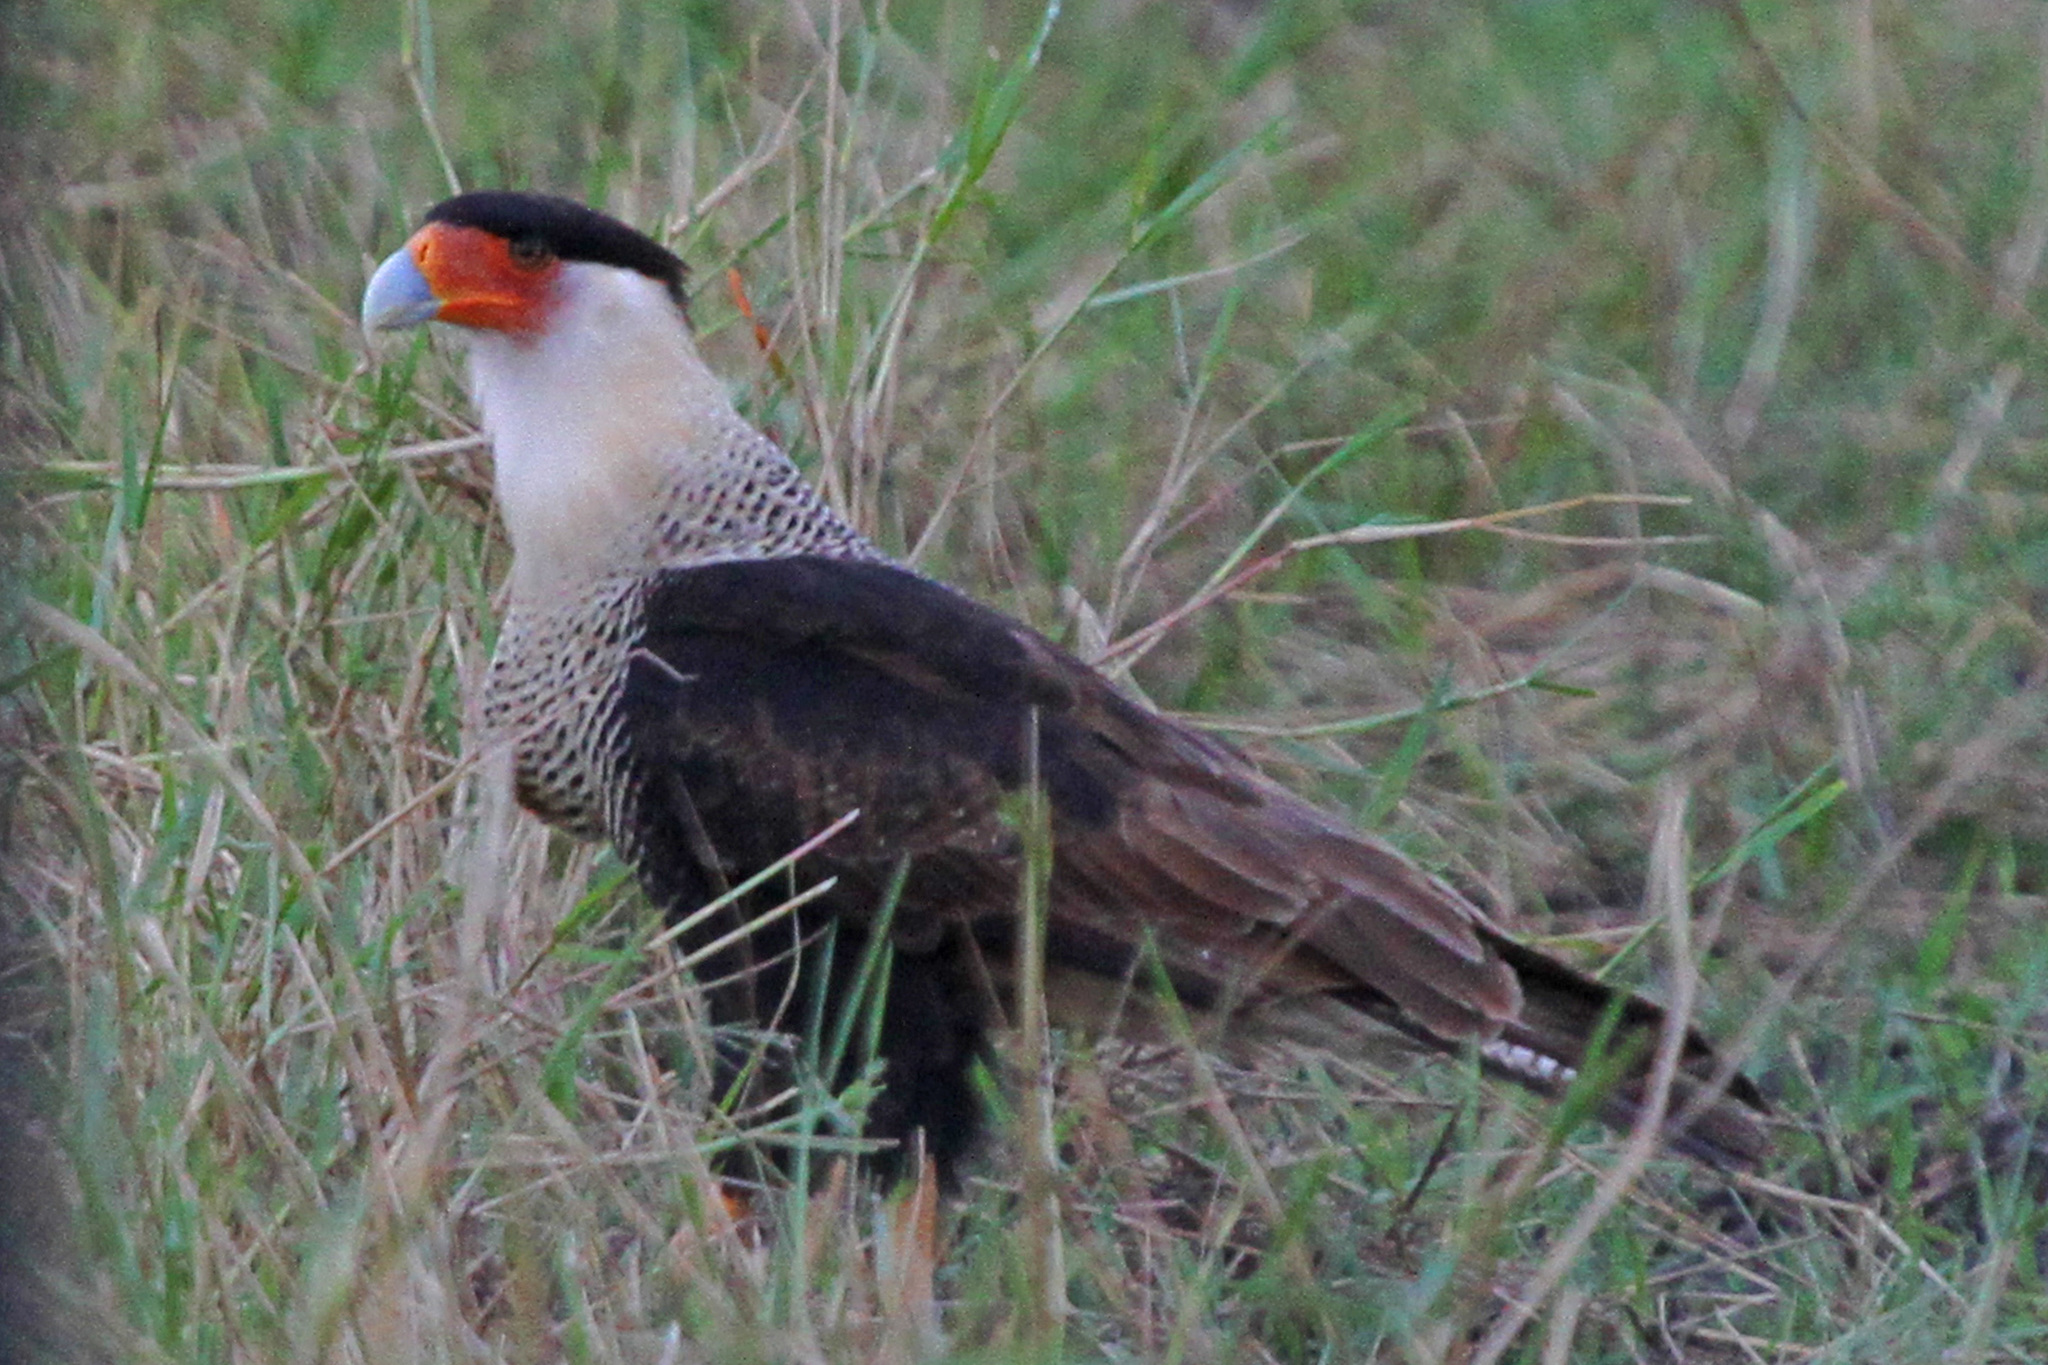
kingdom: Animalia
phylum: Chordata
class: Aves
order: Falconiformes
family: Falconidae
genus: Caracara
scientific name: Caracara plancus
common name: Southern caracara
